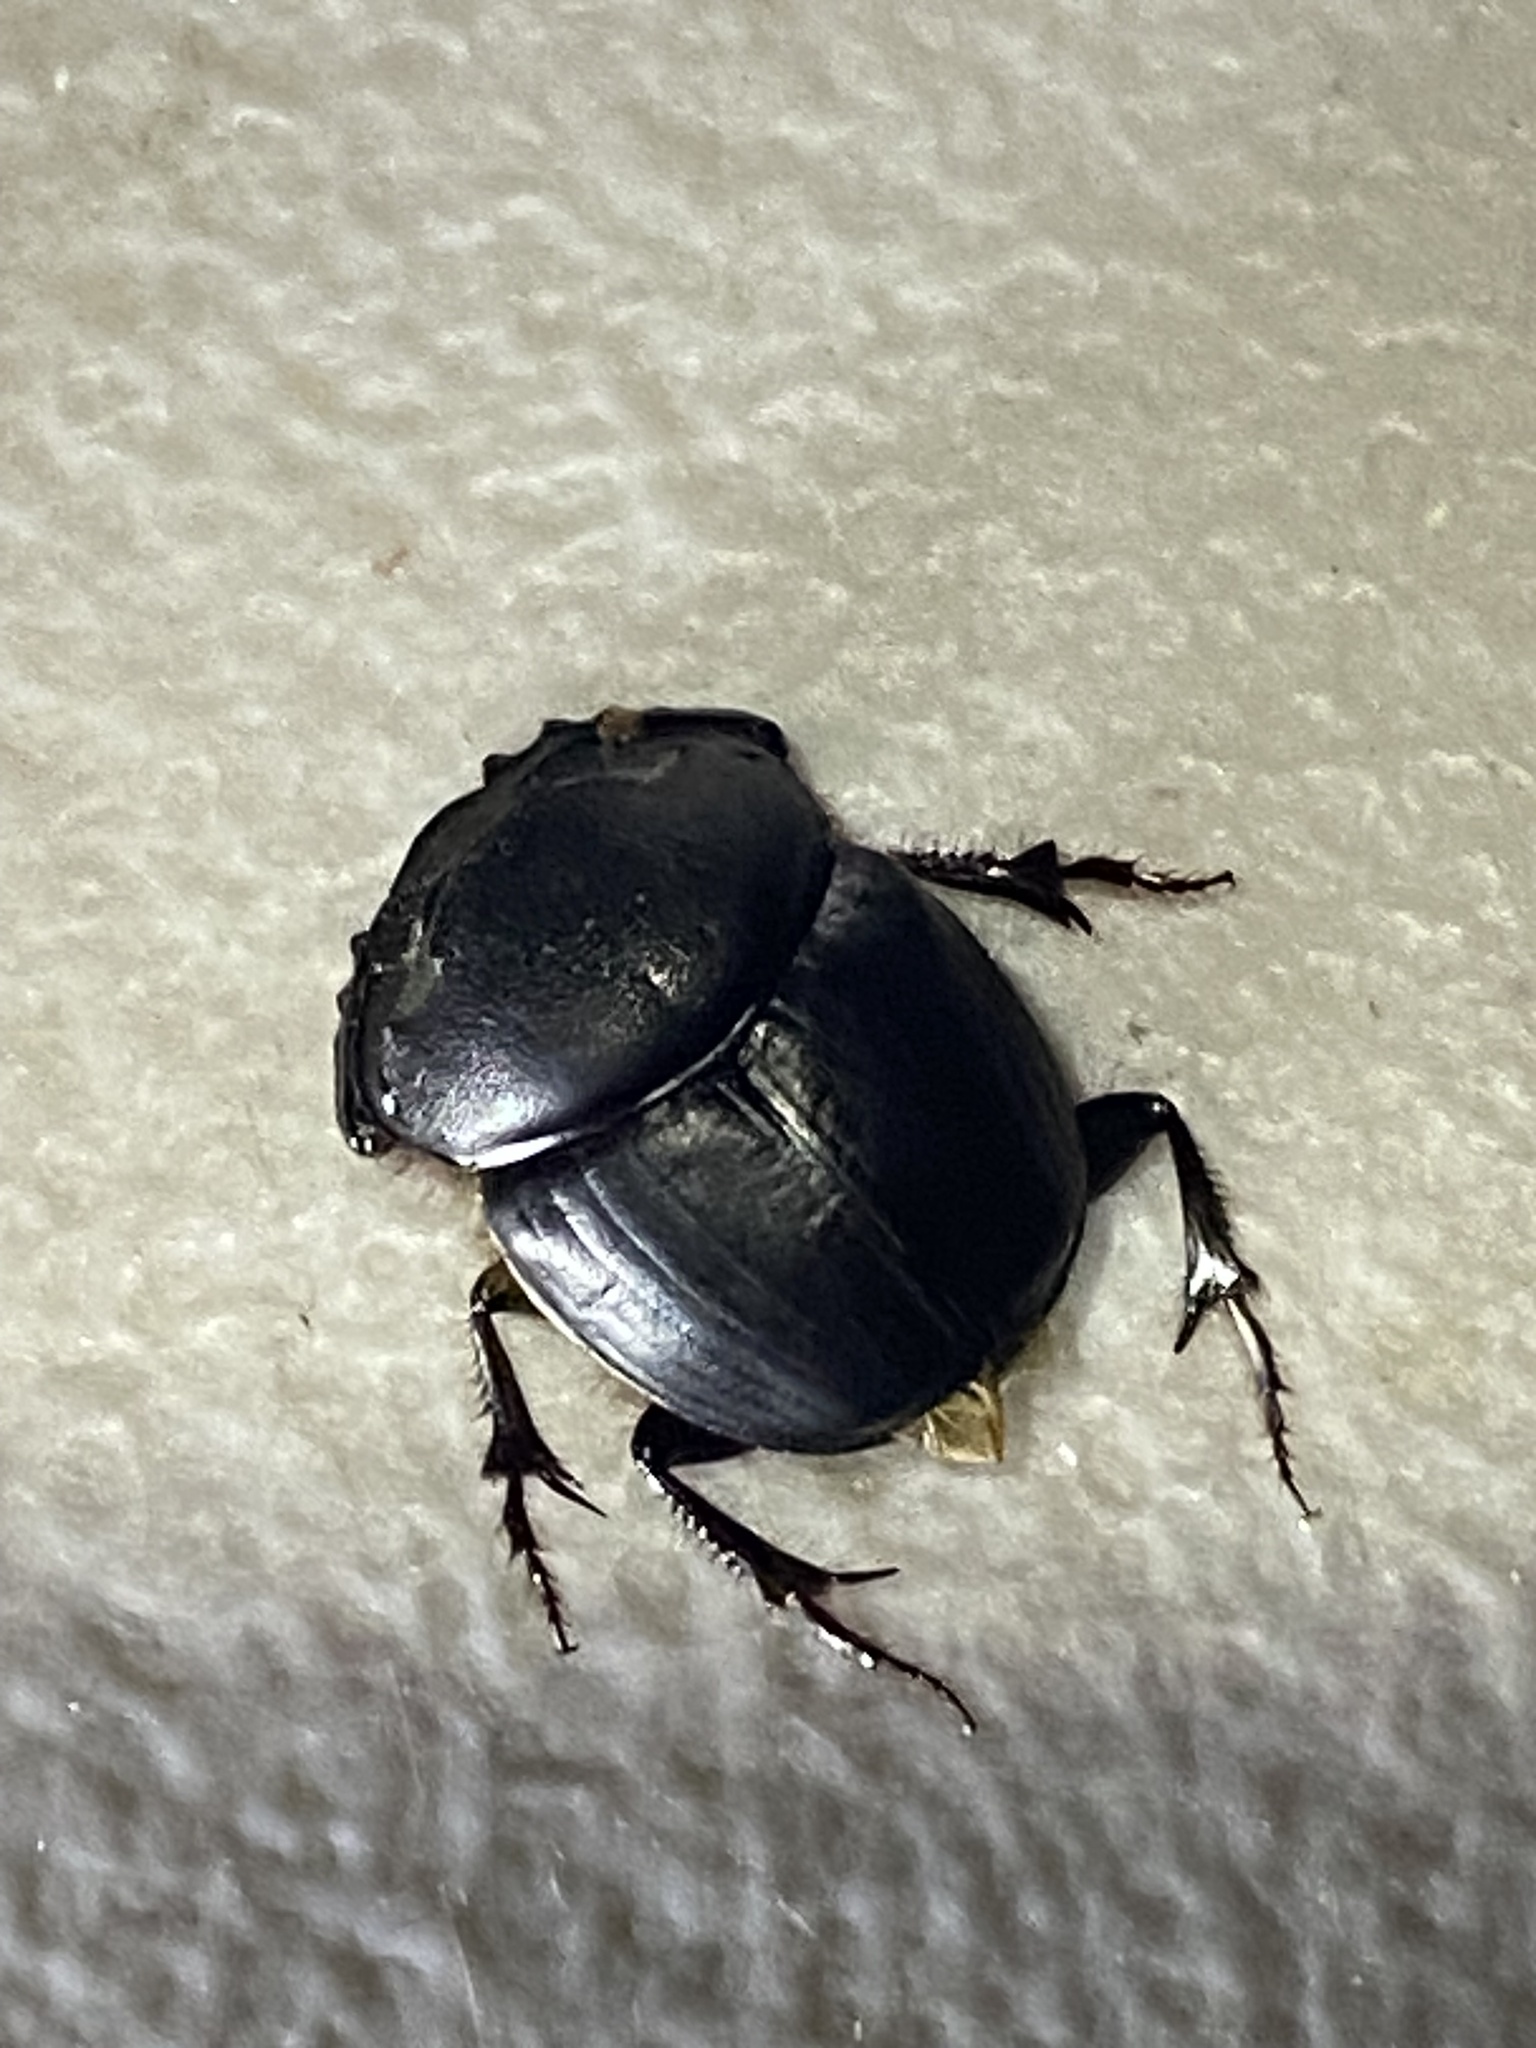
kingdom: Animalia
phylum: Arthropoda
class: Insecta
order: Coleoptera
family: Scarabaeidae
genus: Onthophagus
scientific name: Onthophagus atrox
